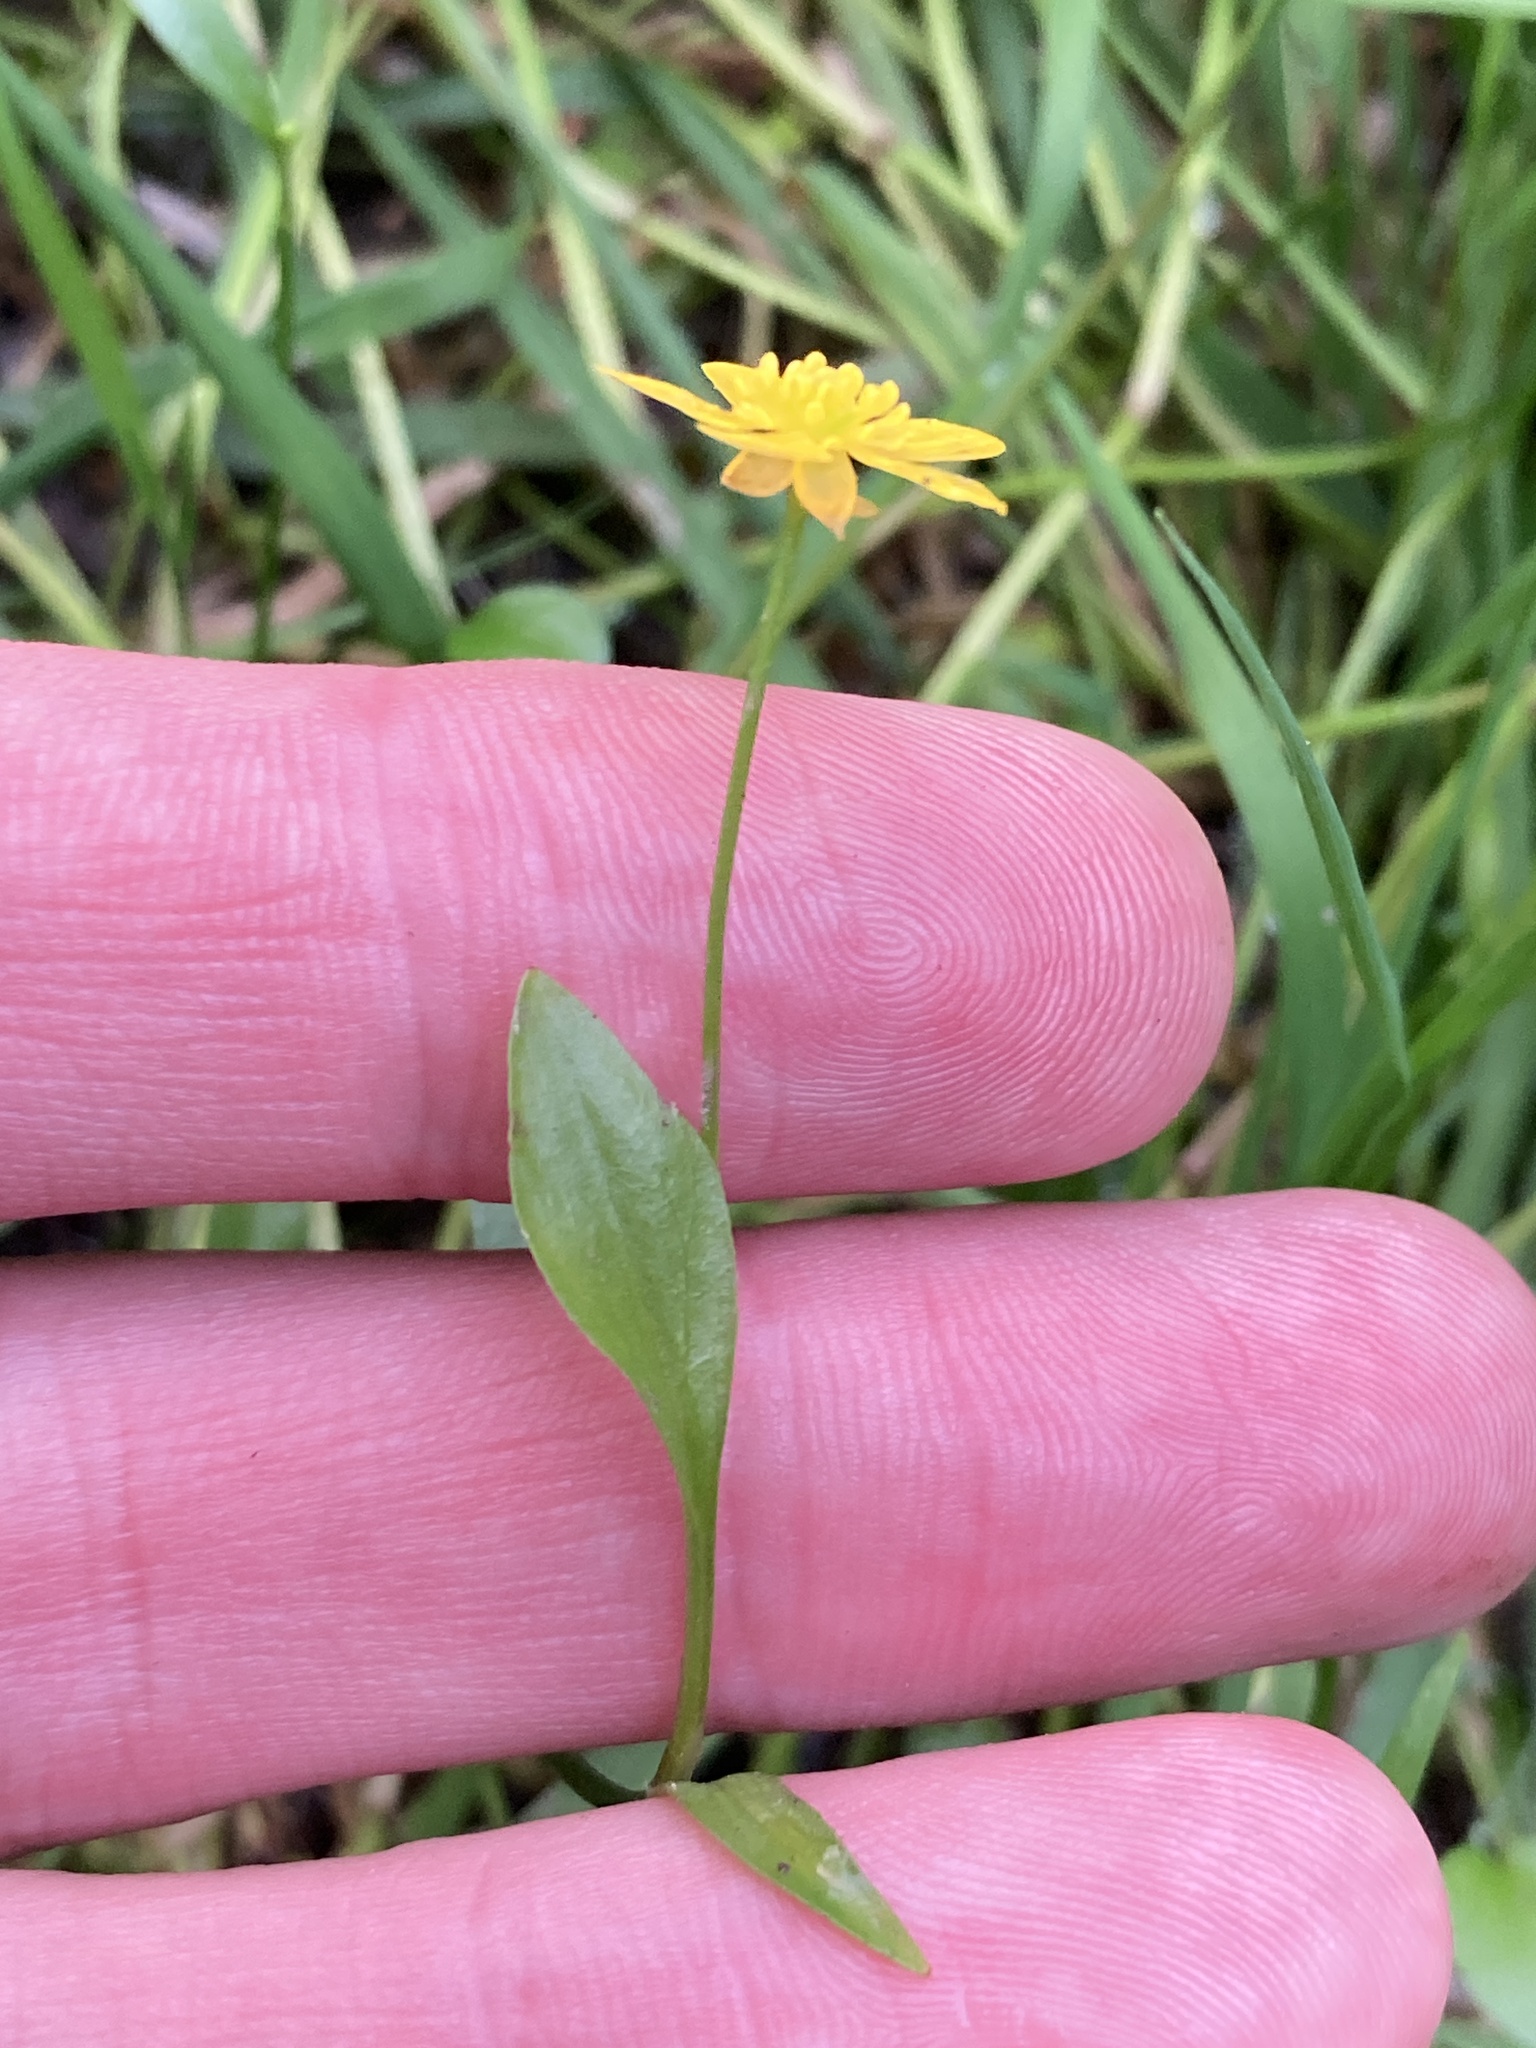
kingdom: Plantae
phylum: Tracheophyta
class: Magnoliopsida
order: Ranunculales
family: Ranunculaceae
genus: Ranunculus
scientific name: Ranunculus flammula
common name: Lesser spearwort
